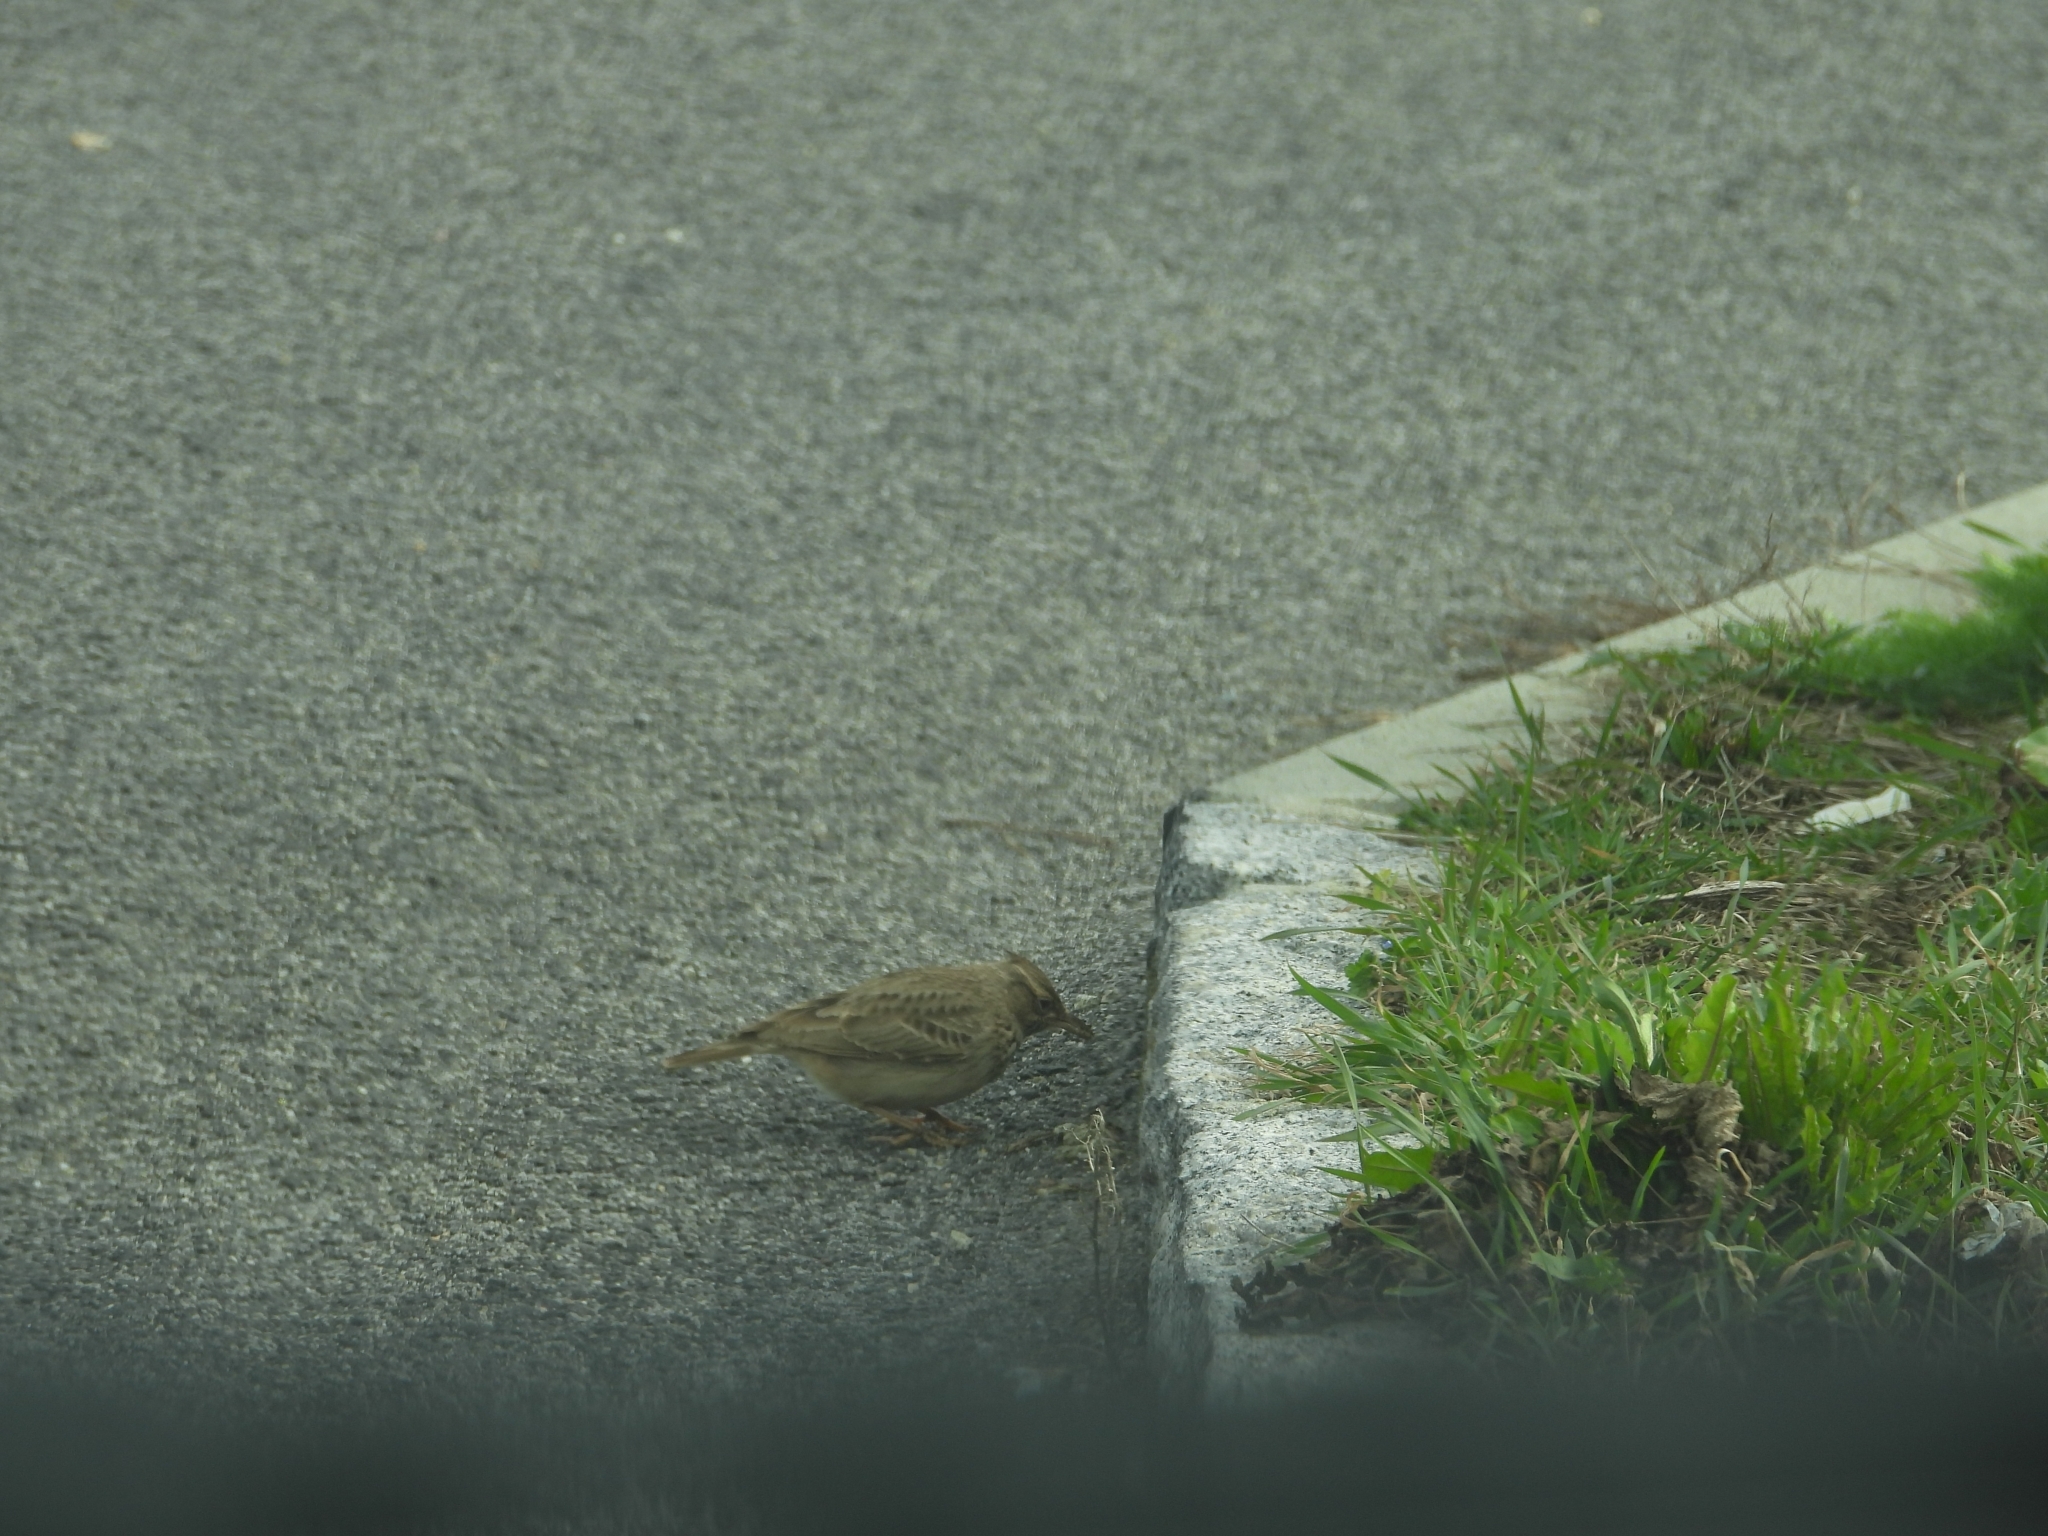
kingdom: Animalia
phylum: Chordata
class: Aves
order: Passeriformes
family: Alaudidae
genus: Galerida
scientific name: Galerida cristata
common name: Crested lark
